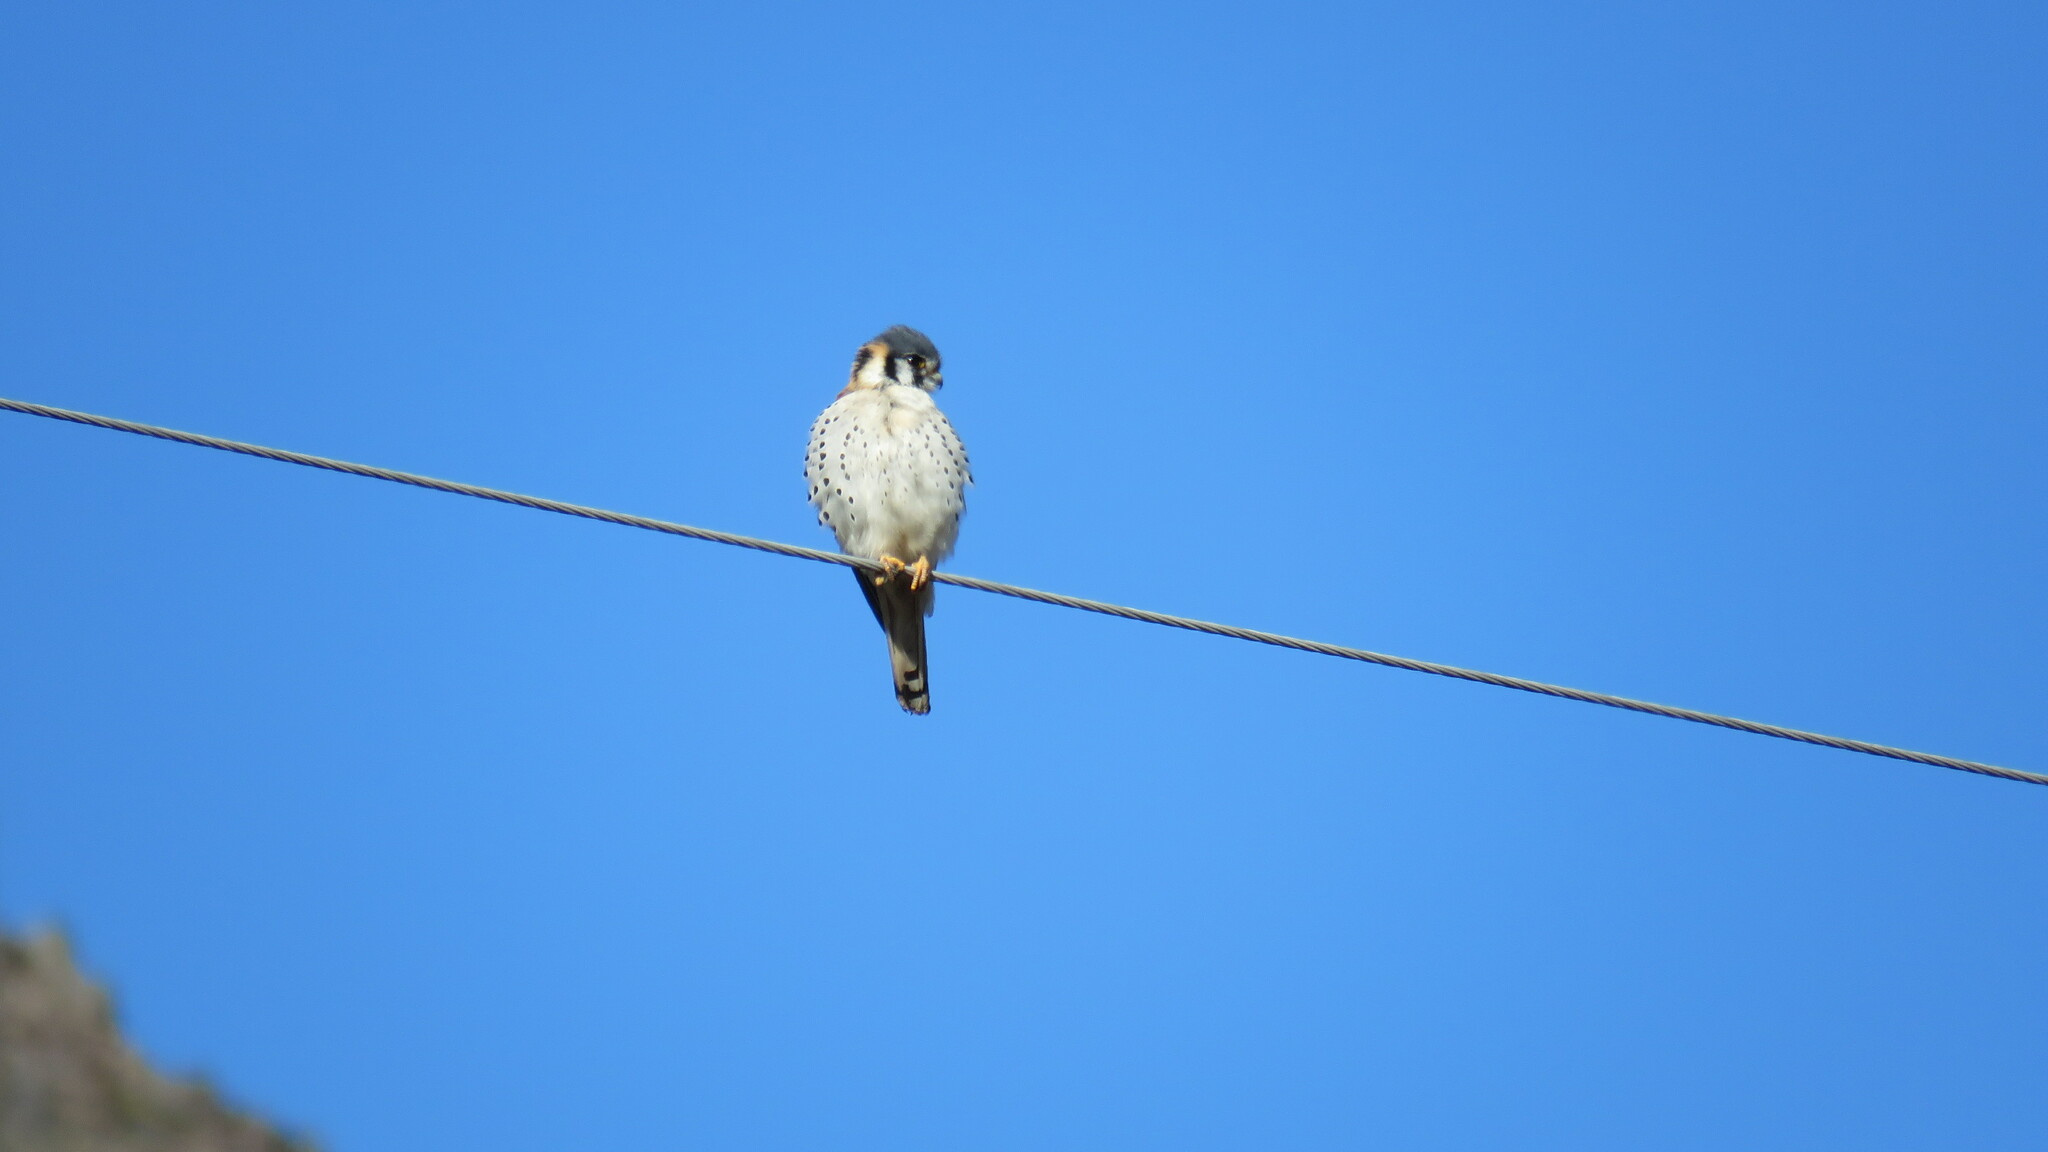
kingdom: Animalia
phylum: Chordata
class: Aves
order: Falconiformes
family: Falconidae
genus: Falco
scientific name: Falco sparverius
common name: American kestrel
